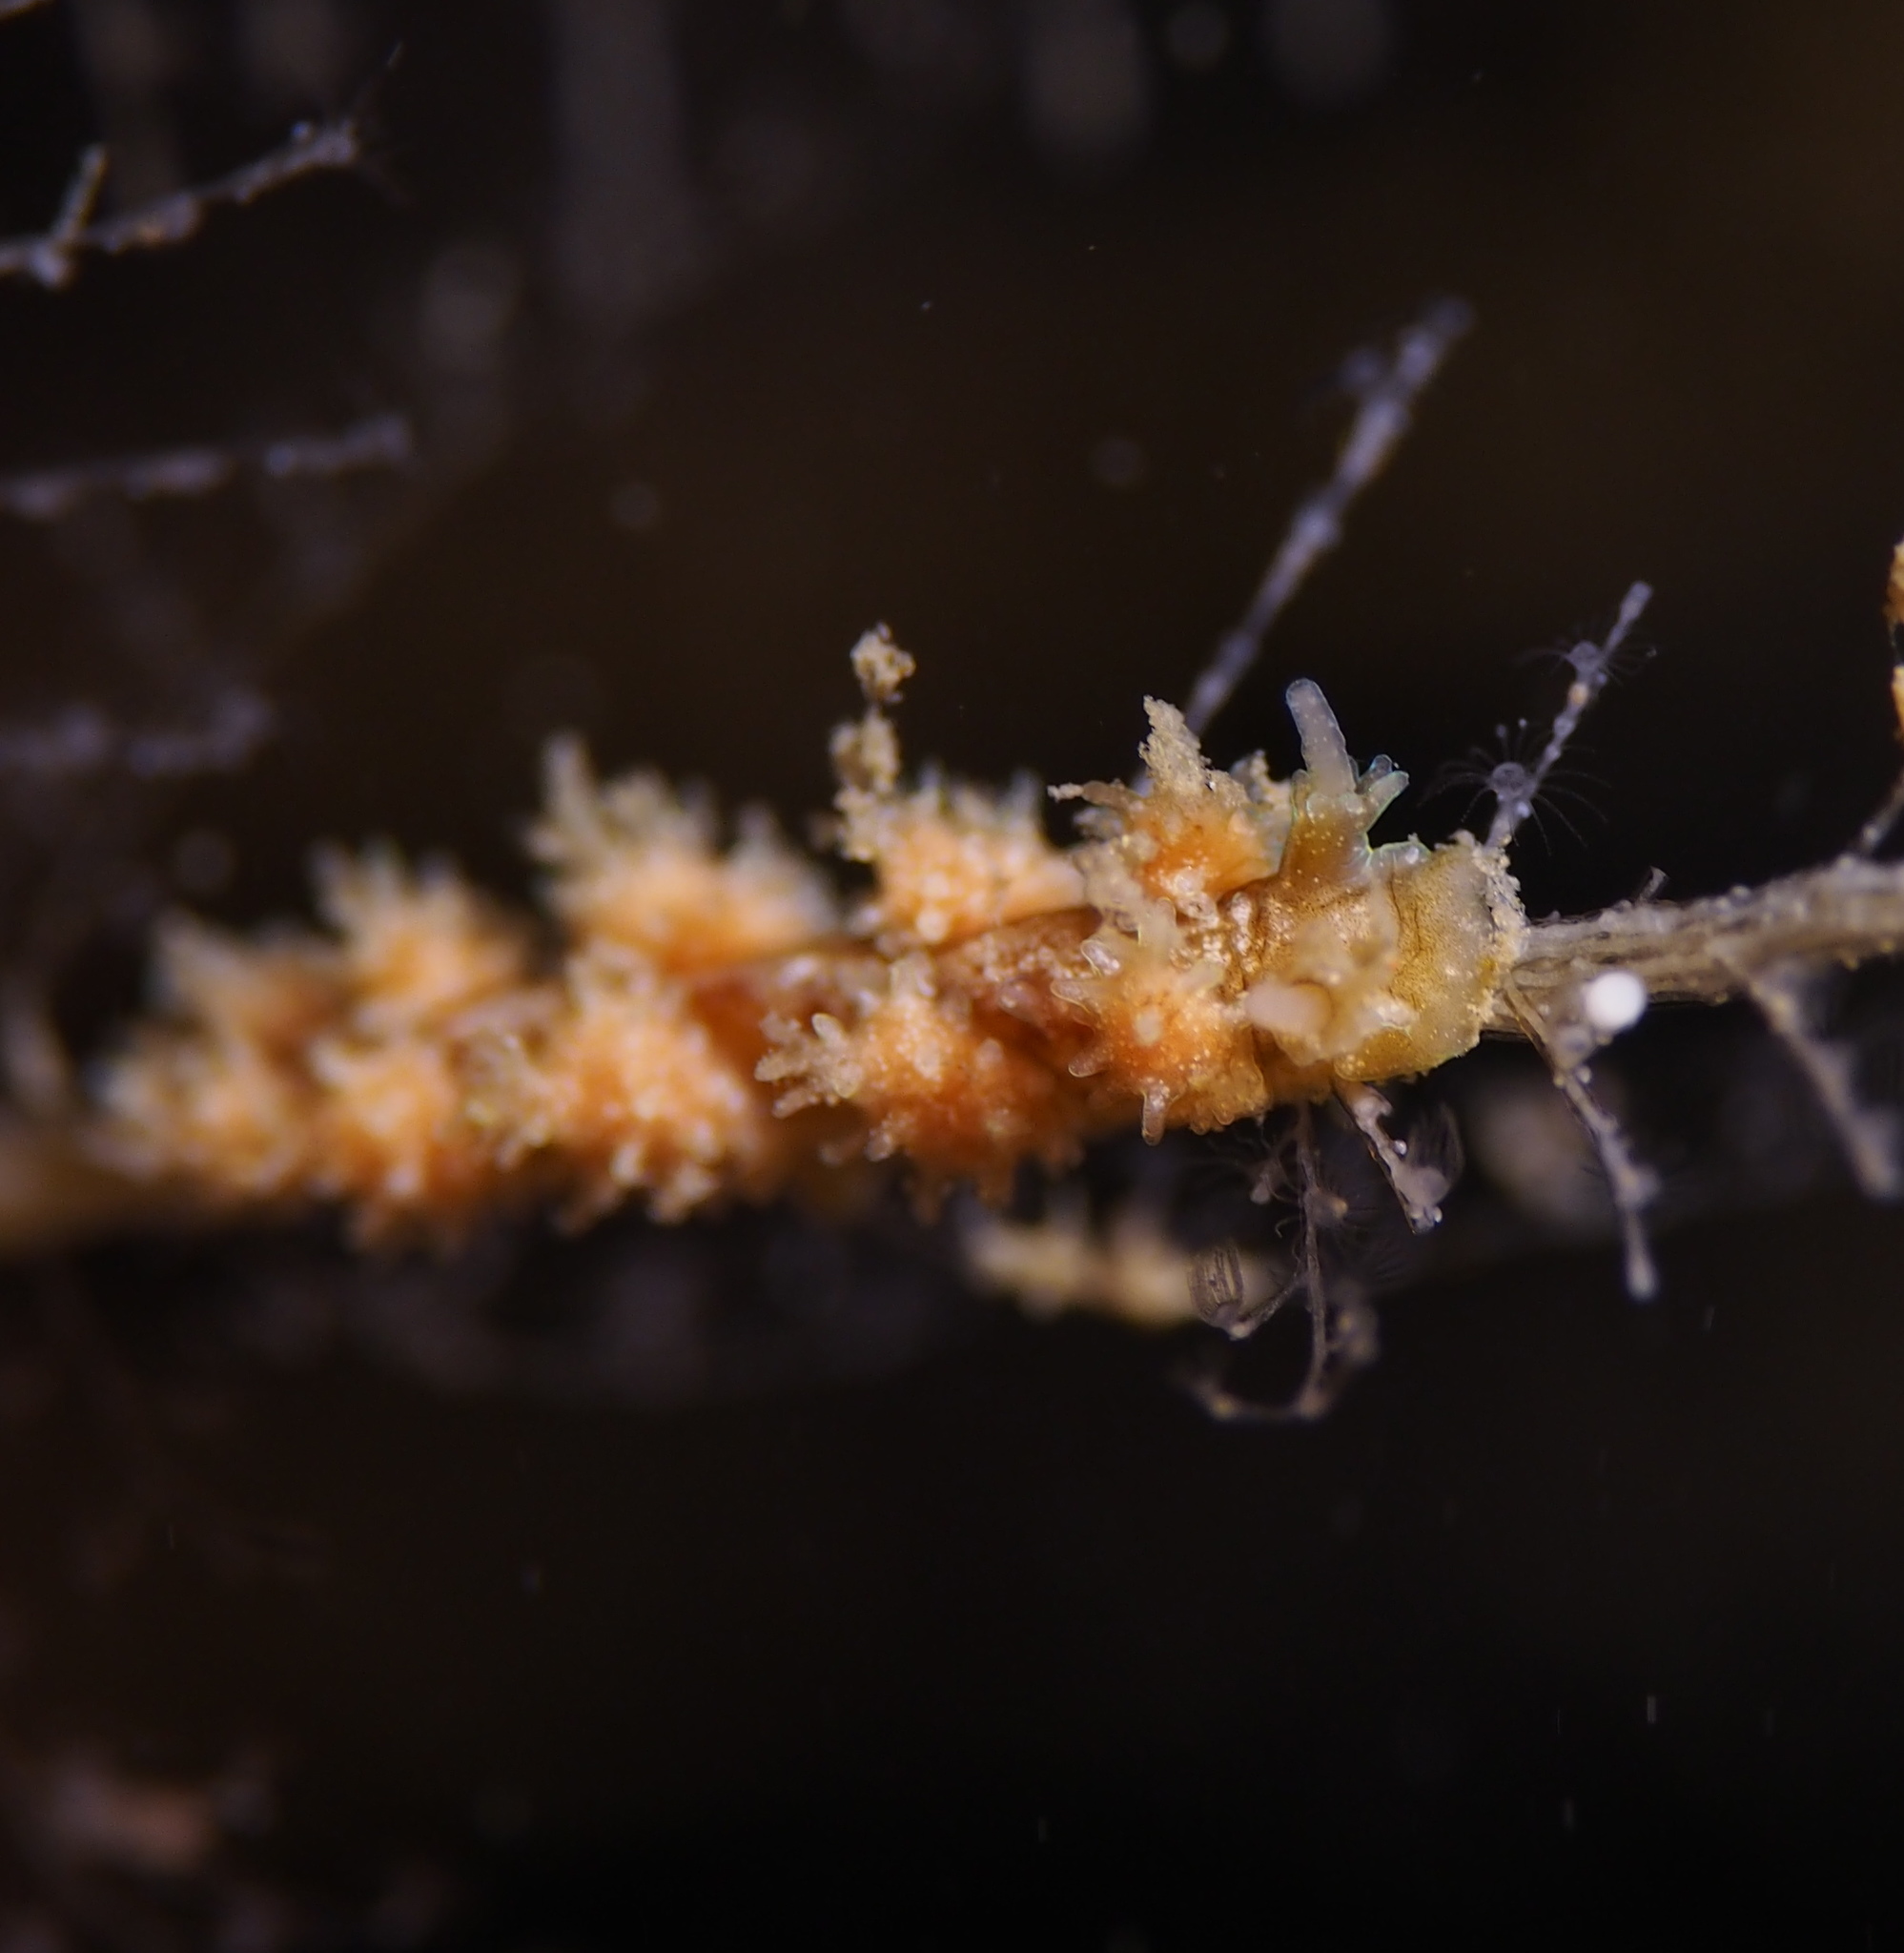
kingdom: Animalia
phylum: Mollusca
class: Gastropoda
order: Nudibranchia
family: Dotidae
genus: Doto
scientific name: Doto hystrix
